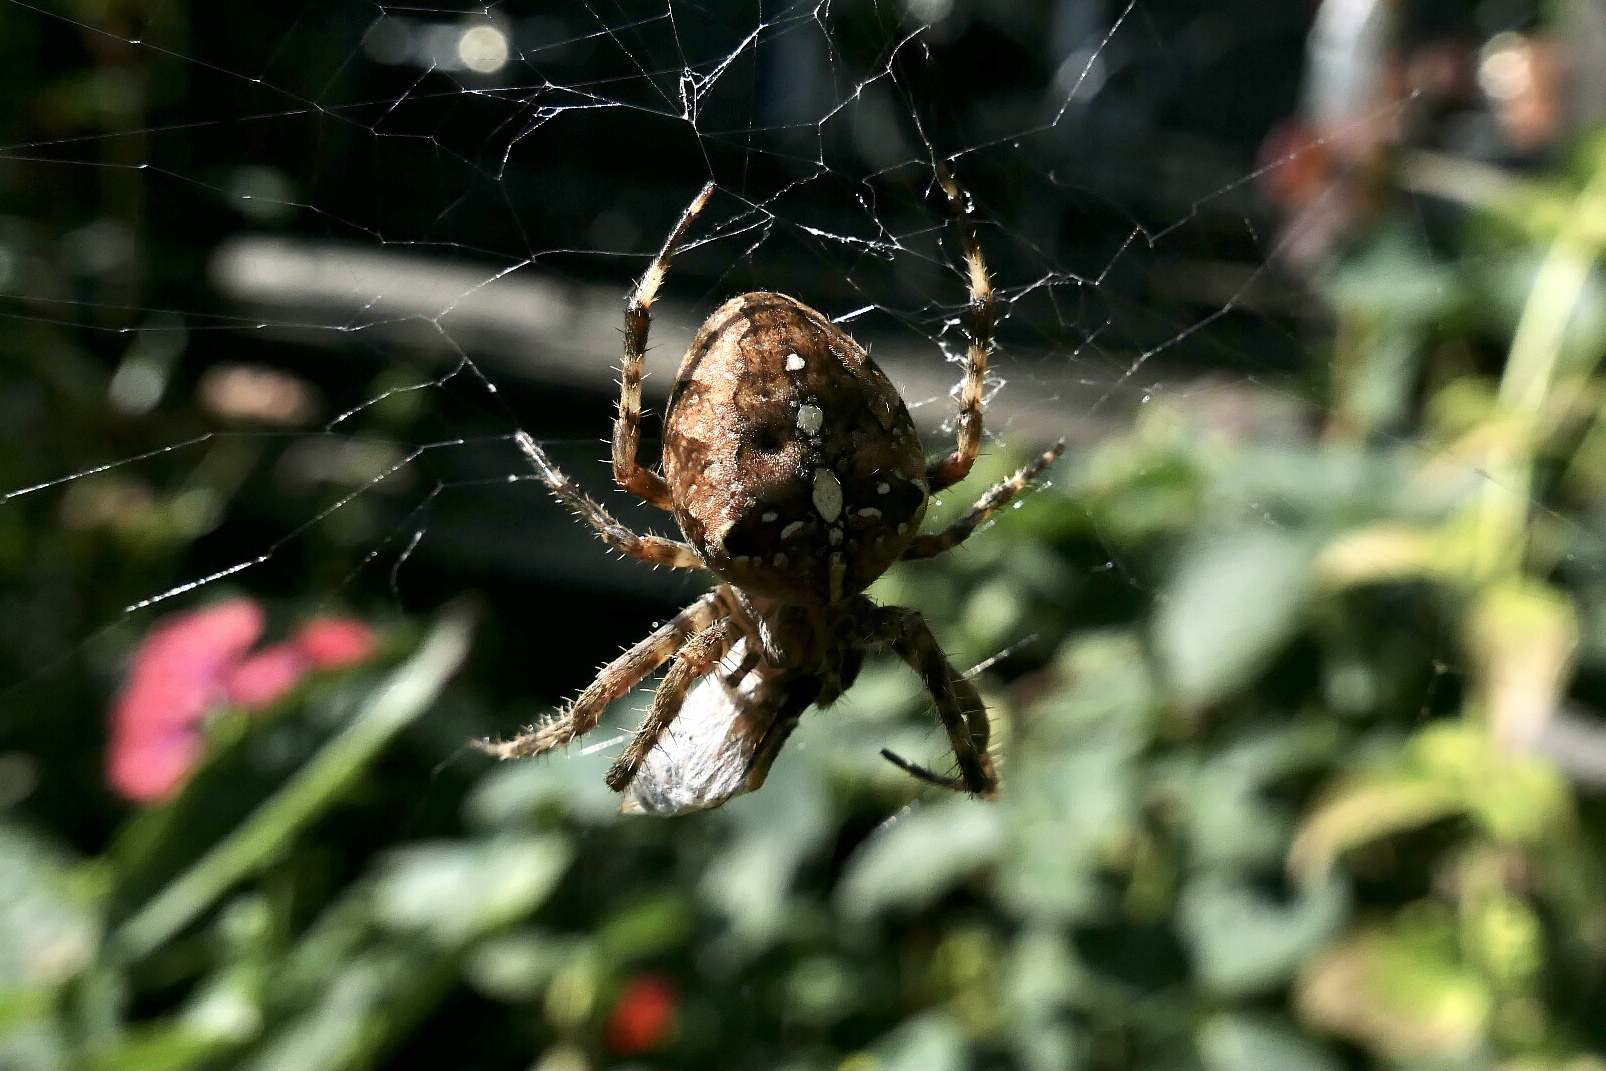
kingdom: Animalia
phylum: Arthropoda
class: Arachnida
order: Araneae
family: Araneidae
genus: Araneus
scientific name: Araneus diadematus
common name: Cross orbweaver
